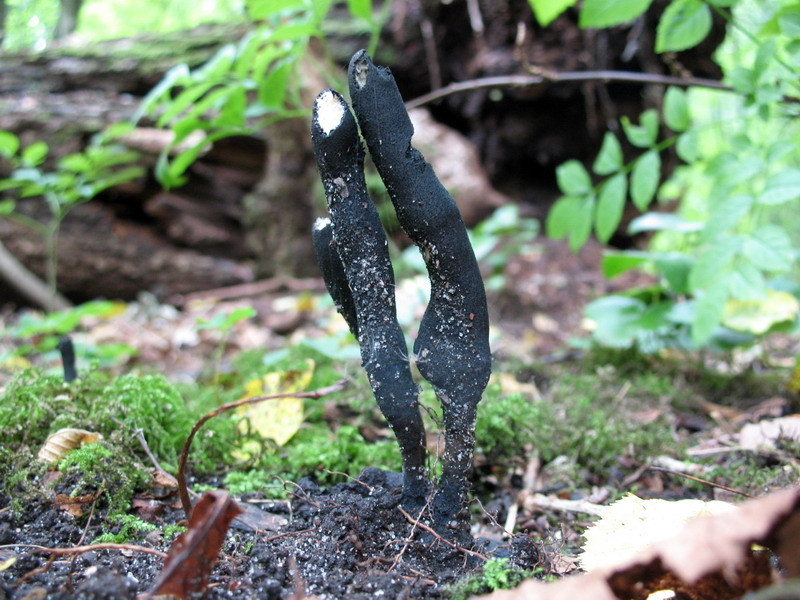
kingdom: Fungi
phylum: Ascomycota
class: Sordariomycetes
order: Xylariales
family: Xylariaceae
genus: Xylaria
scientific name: Xylaria polymorpha
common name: Dead man's fingers
